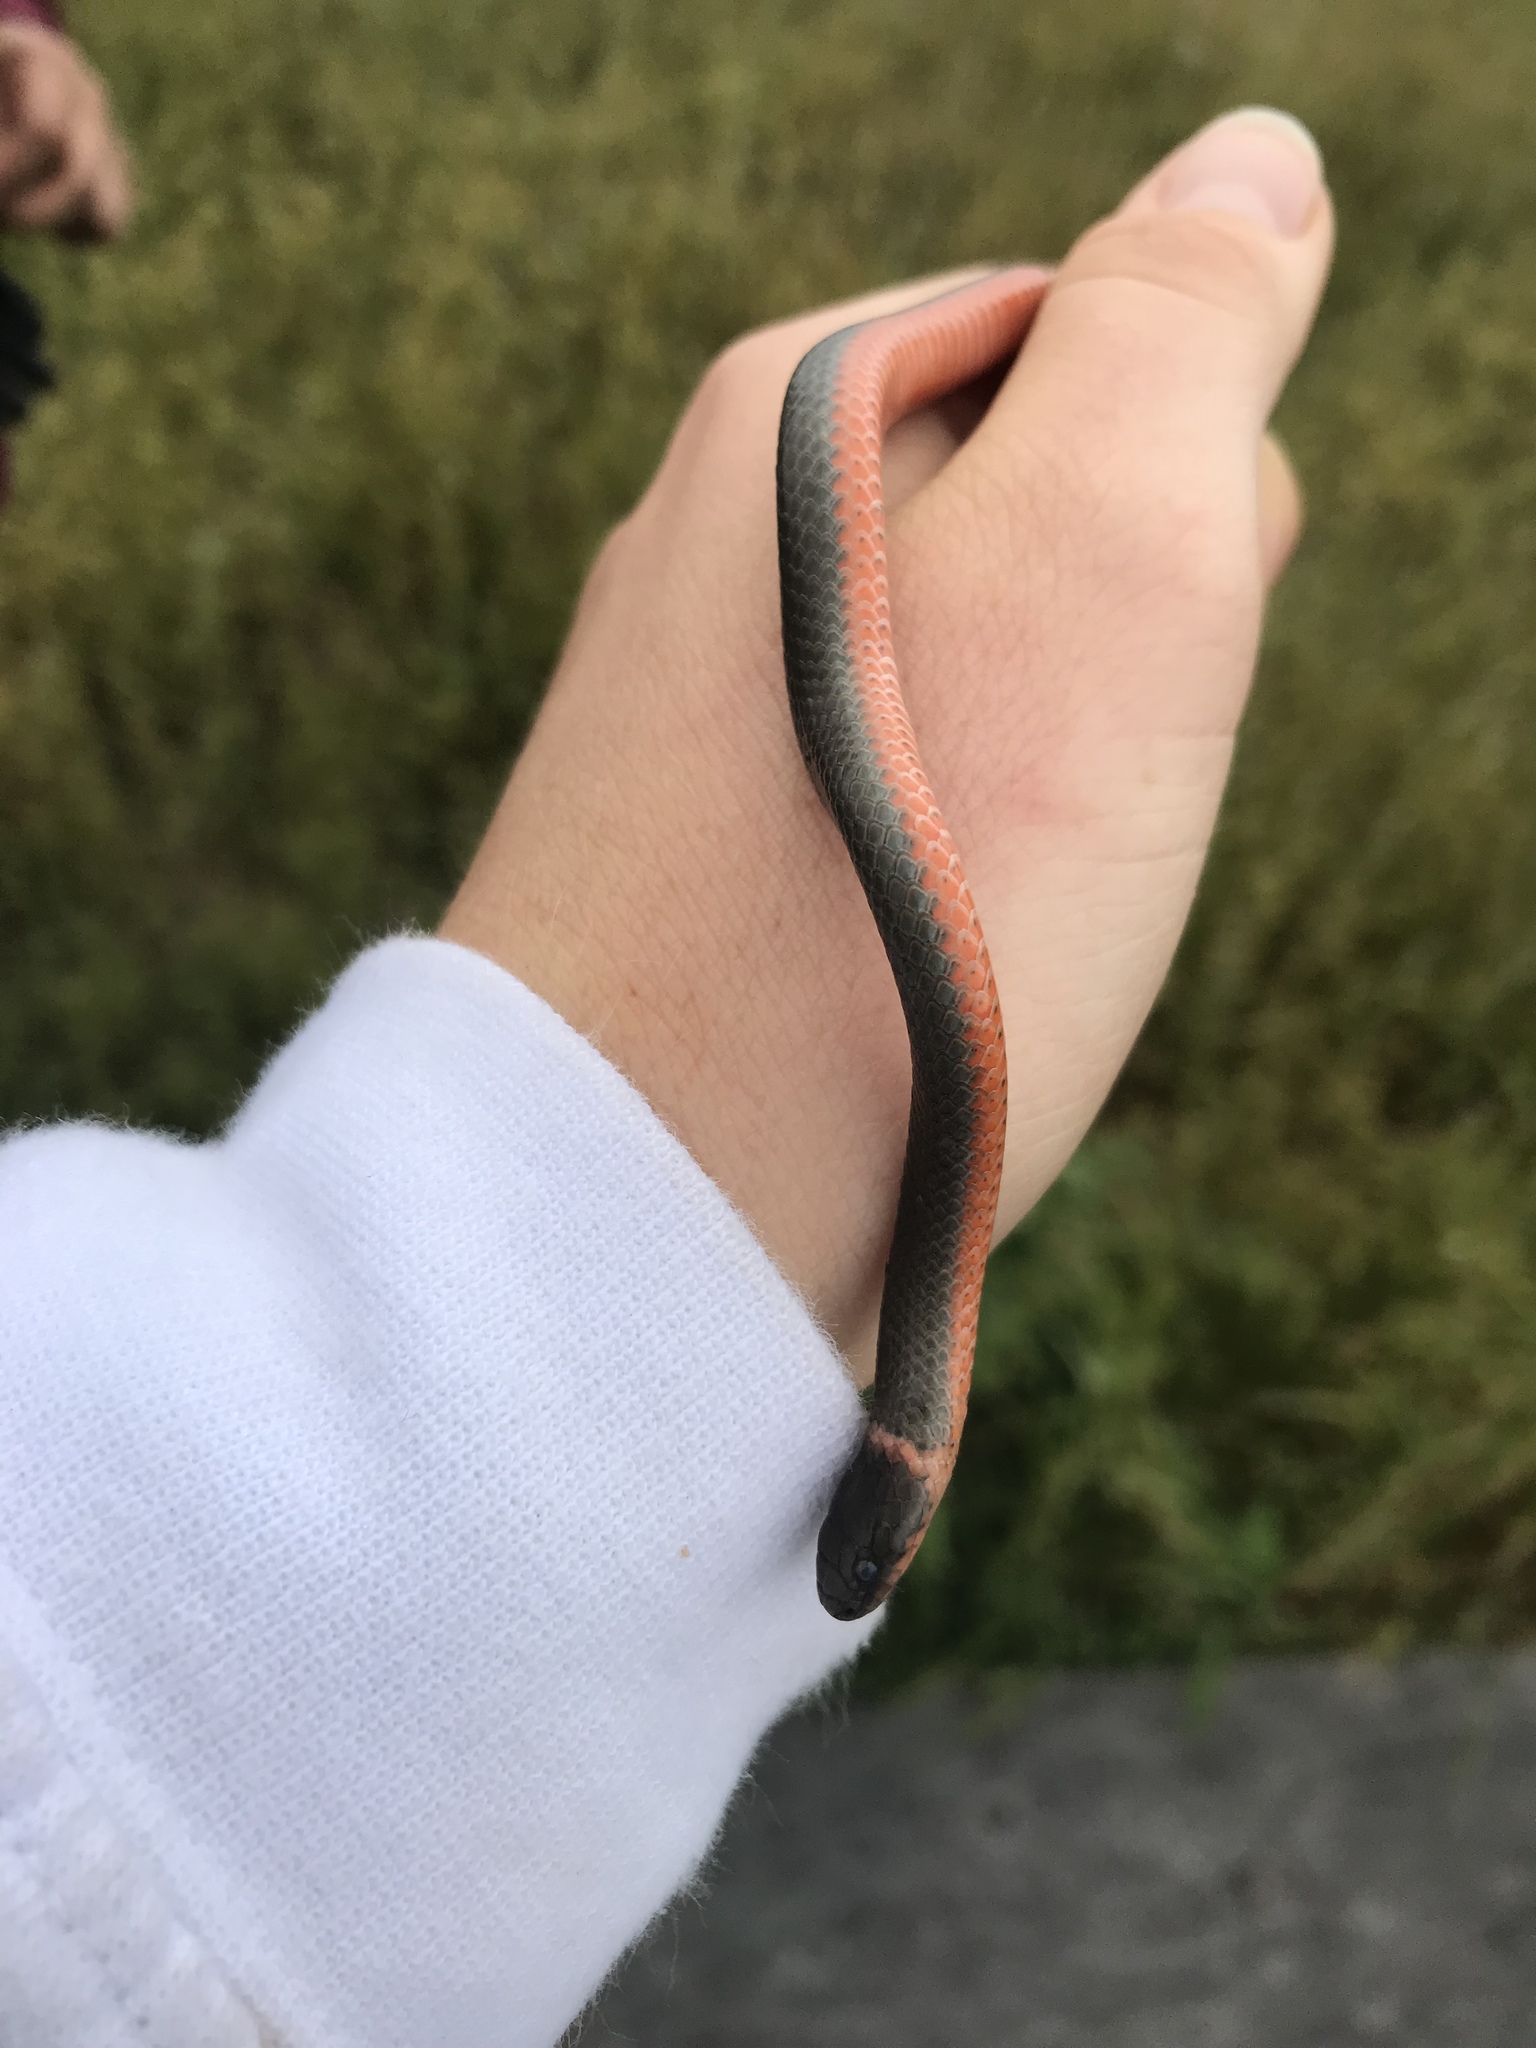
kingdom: Animalia
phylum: Chordata
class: Squamata
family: Colubridae
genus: Diadophis
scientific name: Diadophis punctatus
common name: Ringneck snake
